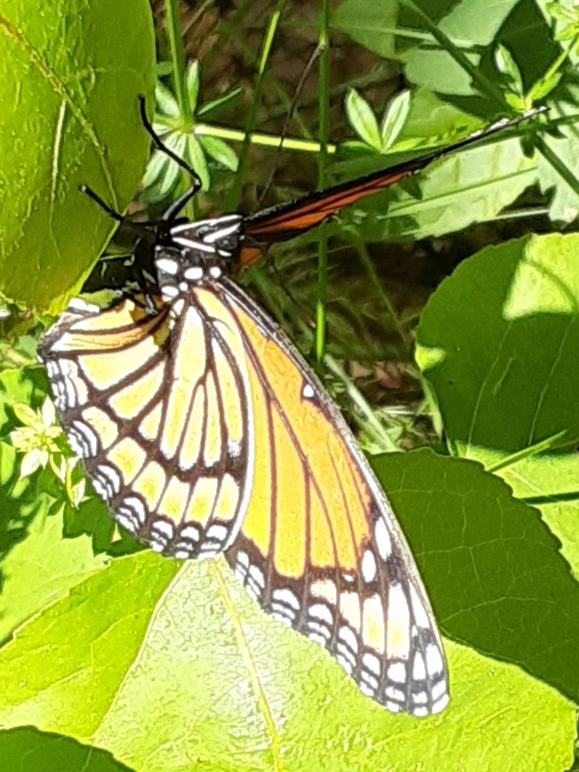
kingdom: Animalia
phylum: Arthropoda
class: Insecta
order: Lepidoptera
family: Nymphalidae
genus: Limenitis
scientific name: Limenitis archippus
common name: Viceroy
